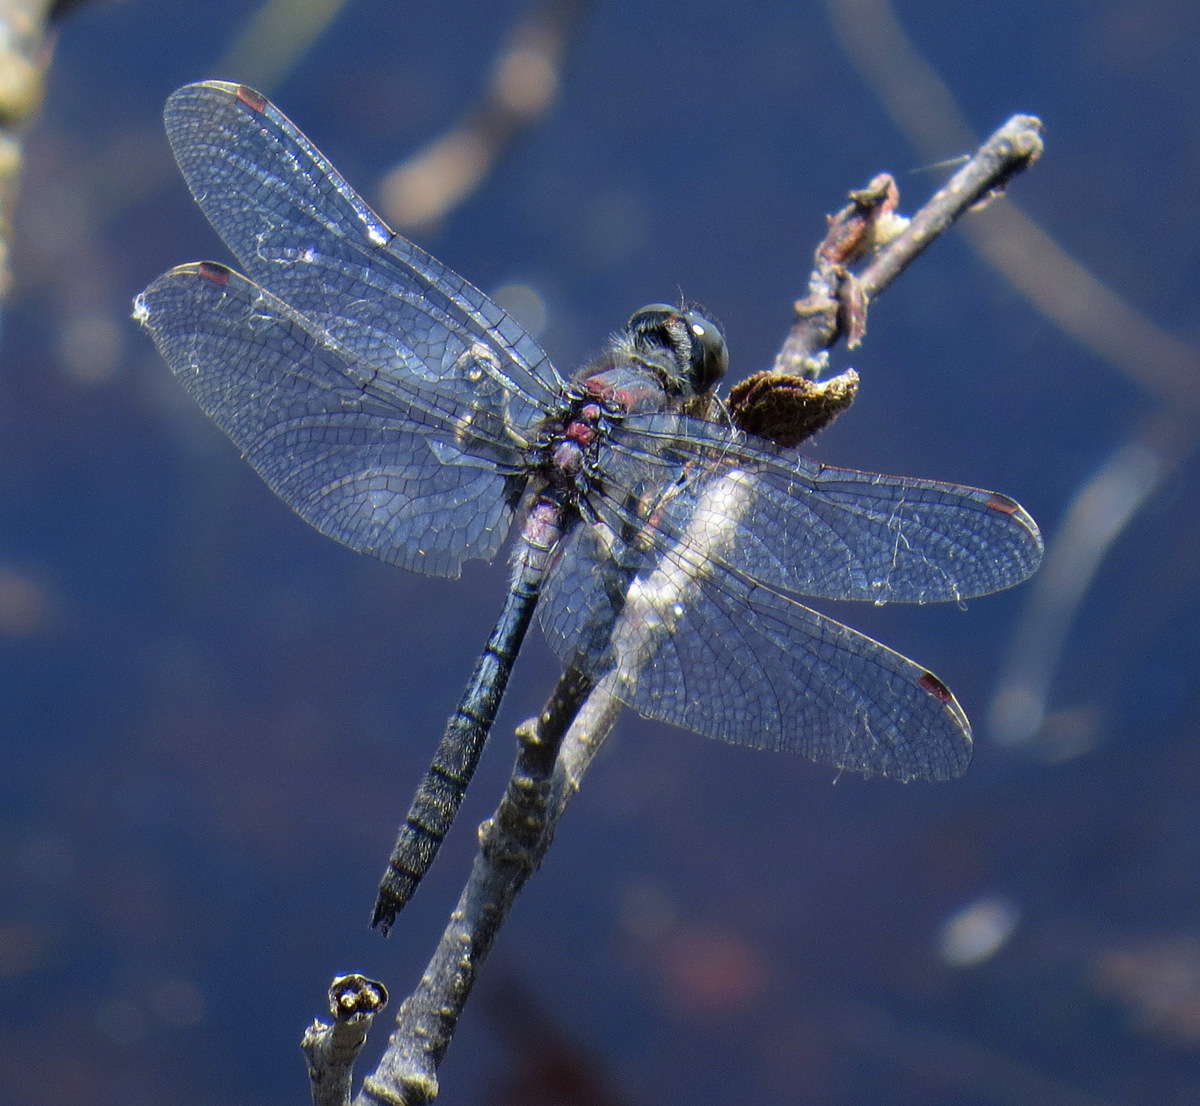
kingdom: Animalia
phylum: Arthropoda
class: Insecta
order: Odonata
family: Libellulidae
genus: Leucorrhinia
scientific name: Leucorrhinia proxima
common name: Belted whiteface
